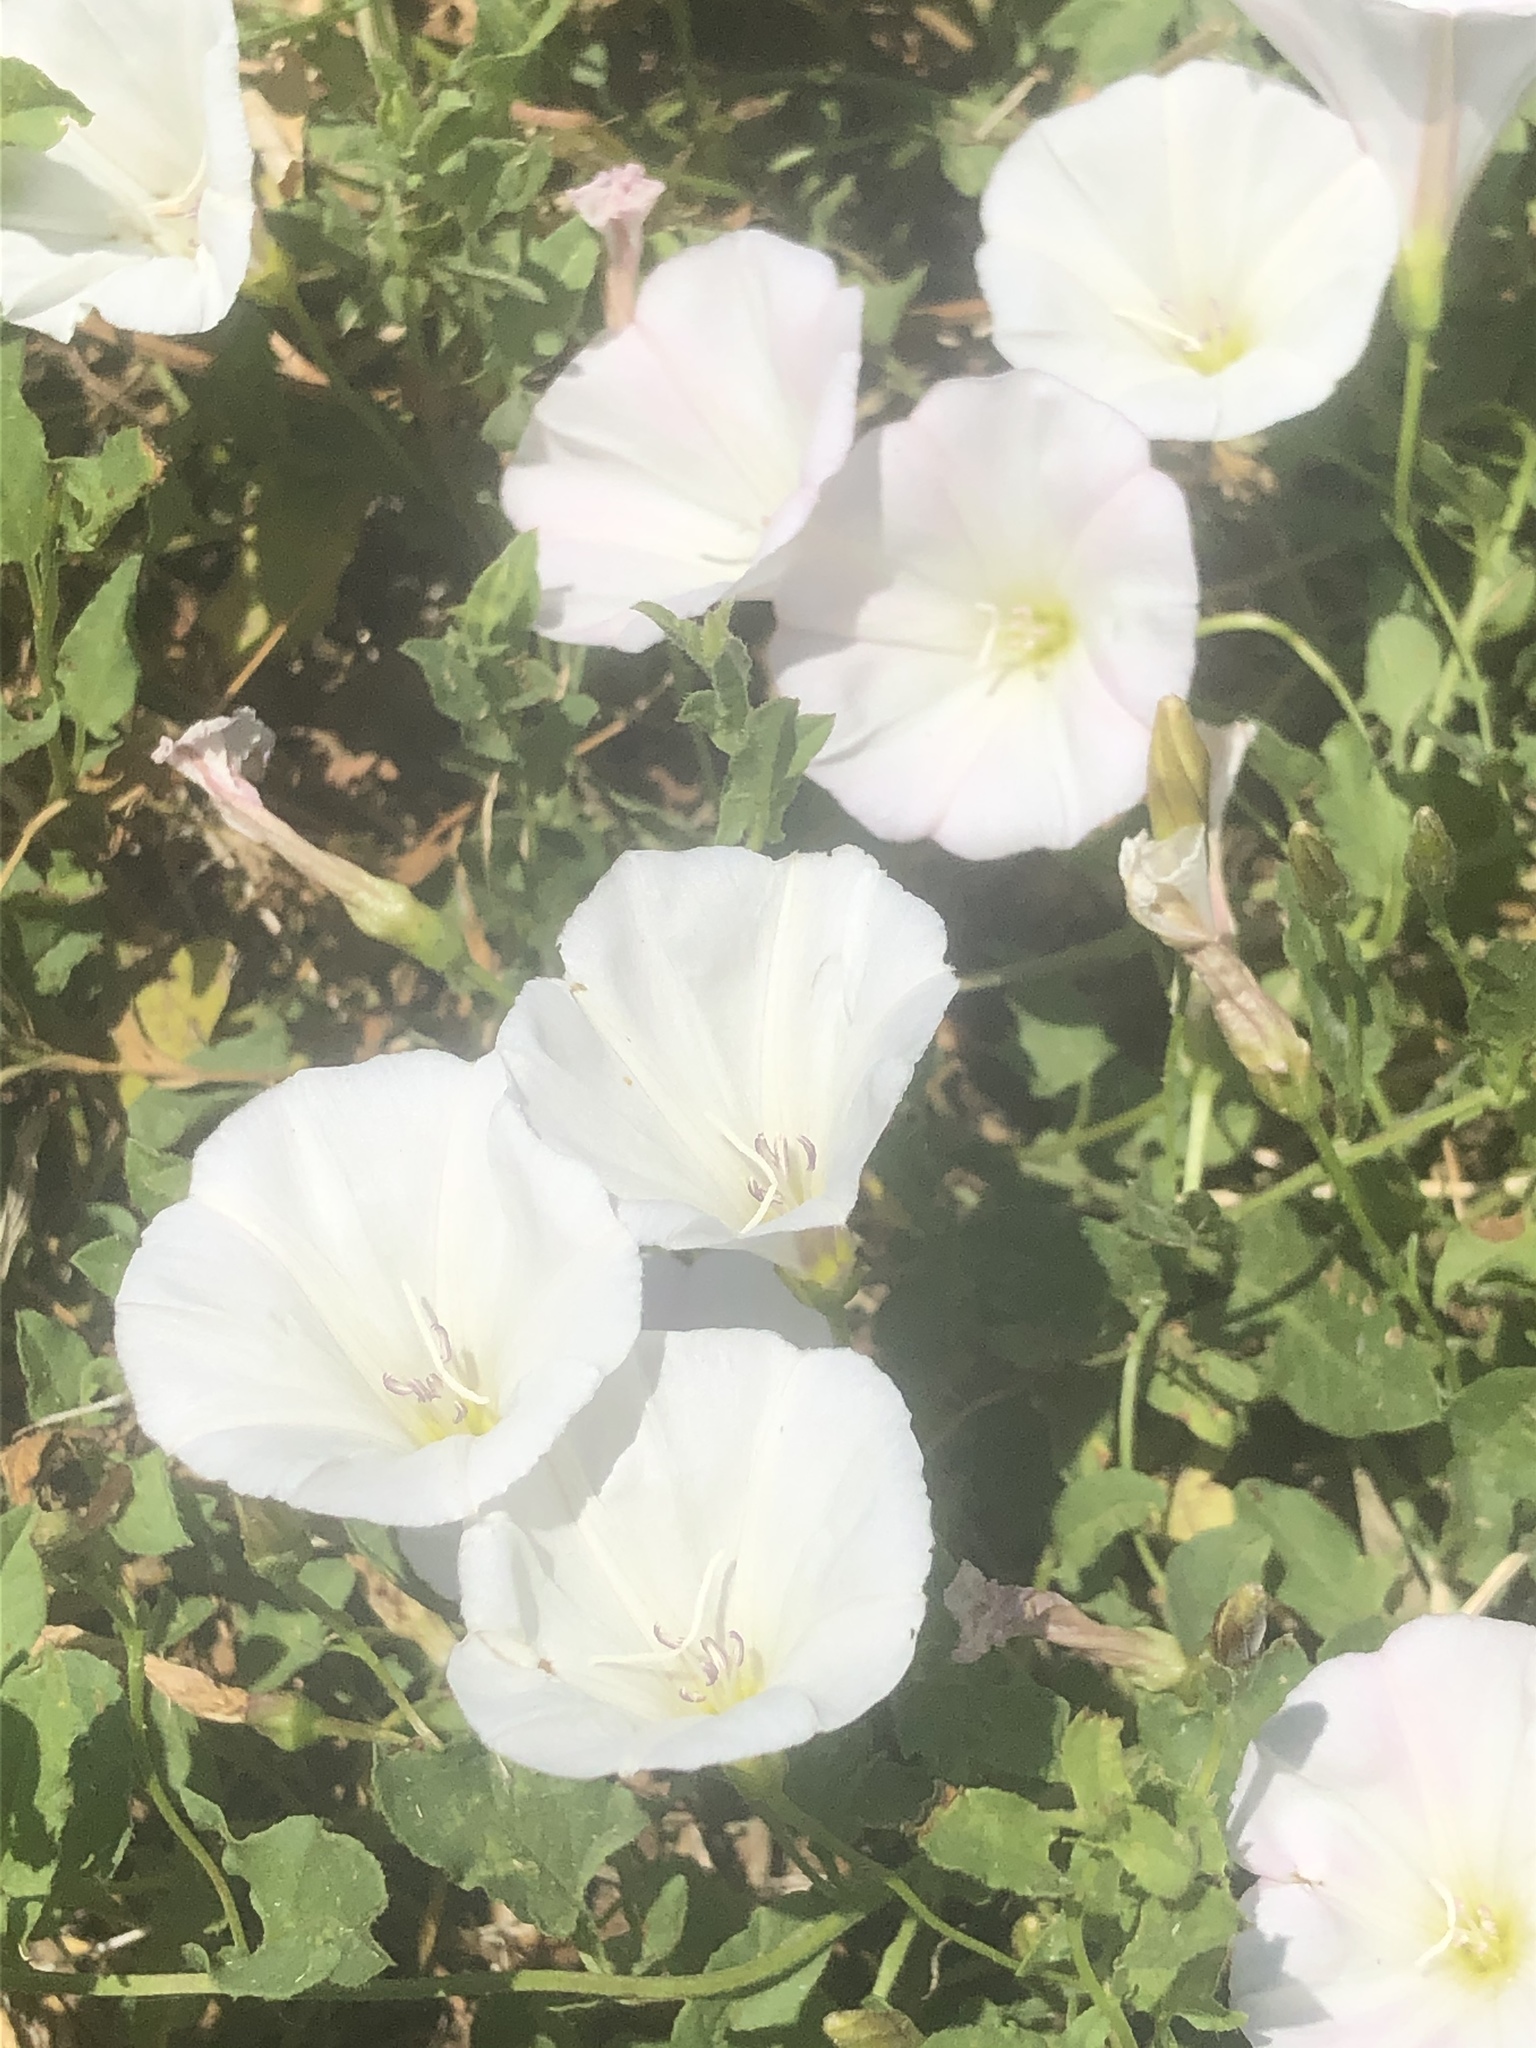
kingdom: Plantae
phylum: Tracheophyta
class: Magnoliopsida
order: Solanales
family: Convolvulaceae
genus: Convolvulus
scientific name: Convolvulus arvensis
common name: Field bindweed
